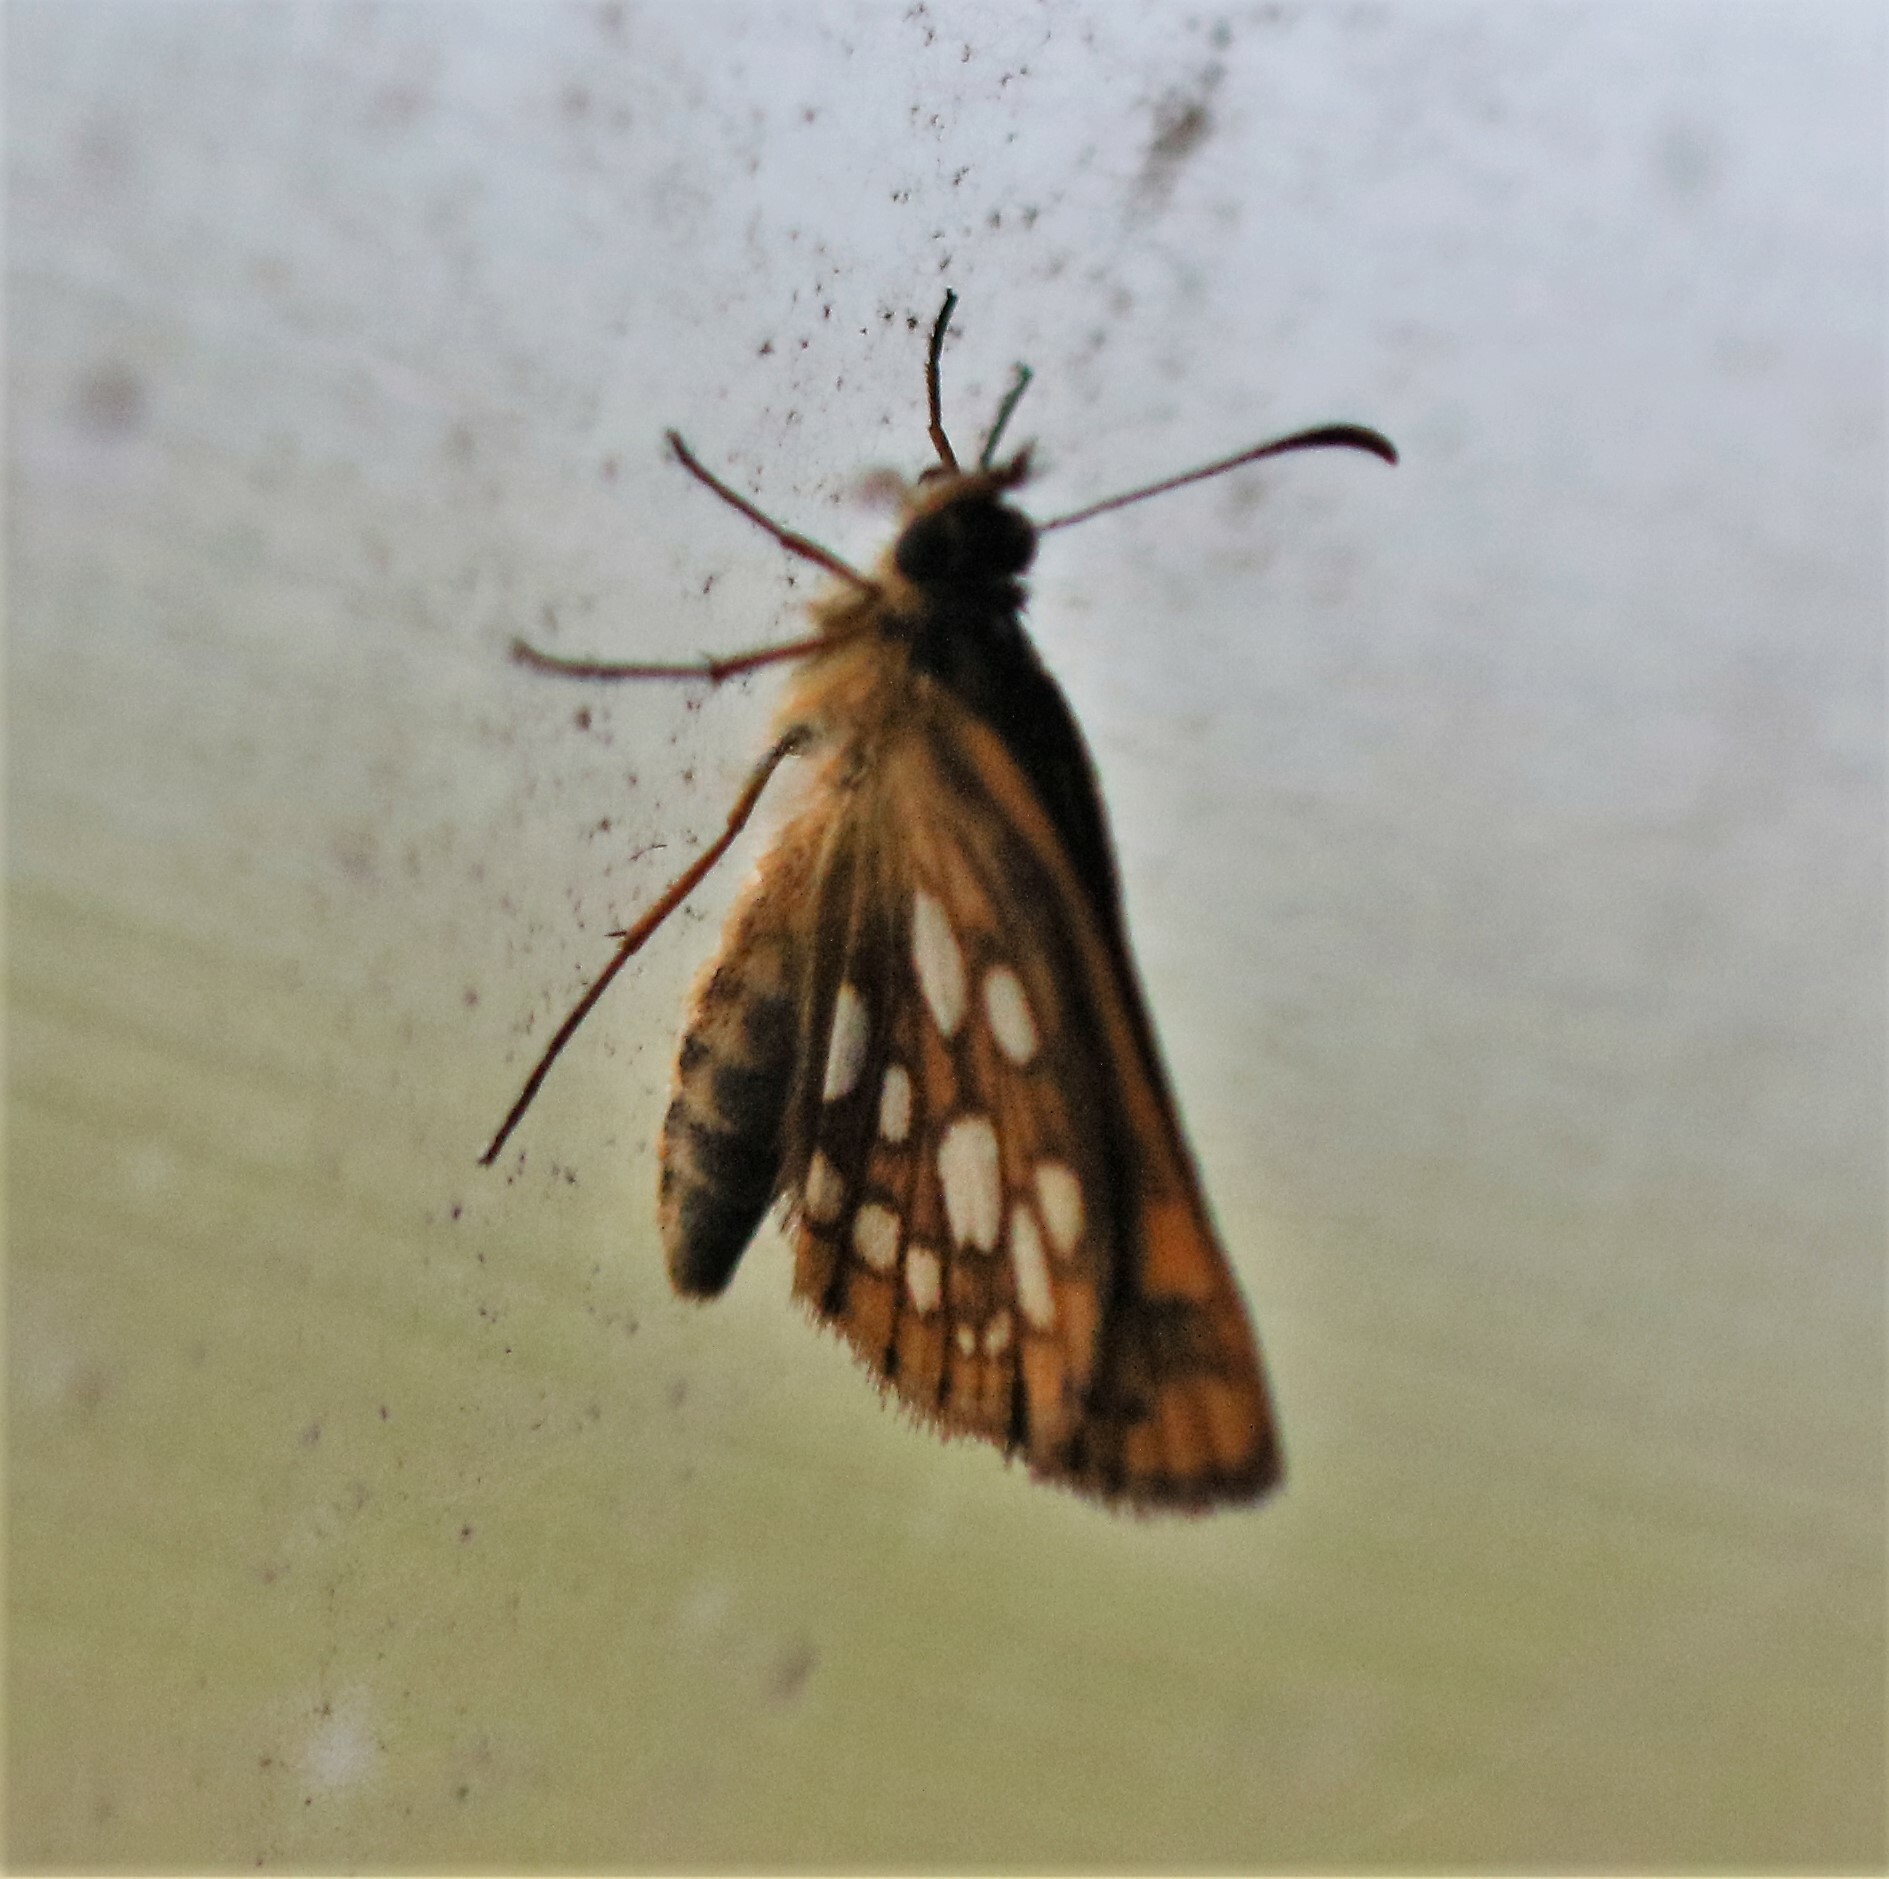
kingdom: Animalia
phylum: Arthropoda
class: Insecta
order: Lepidoptera
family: Hesperiidae
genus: Carterocephalus
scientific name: Carterocephalus mandan
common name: Arctic skipperling
